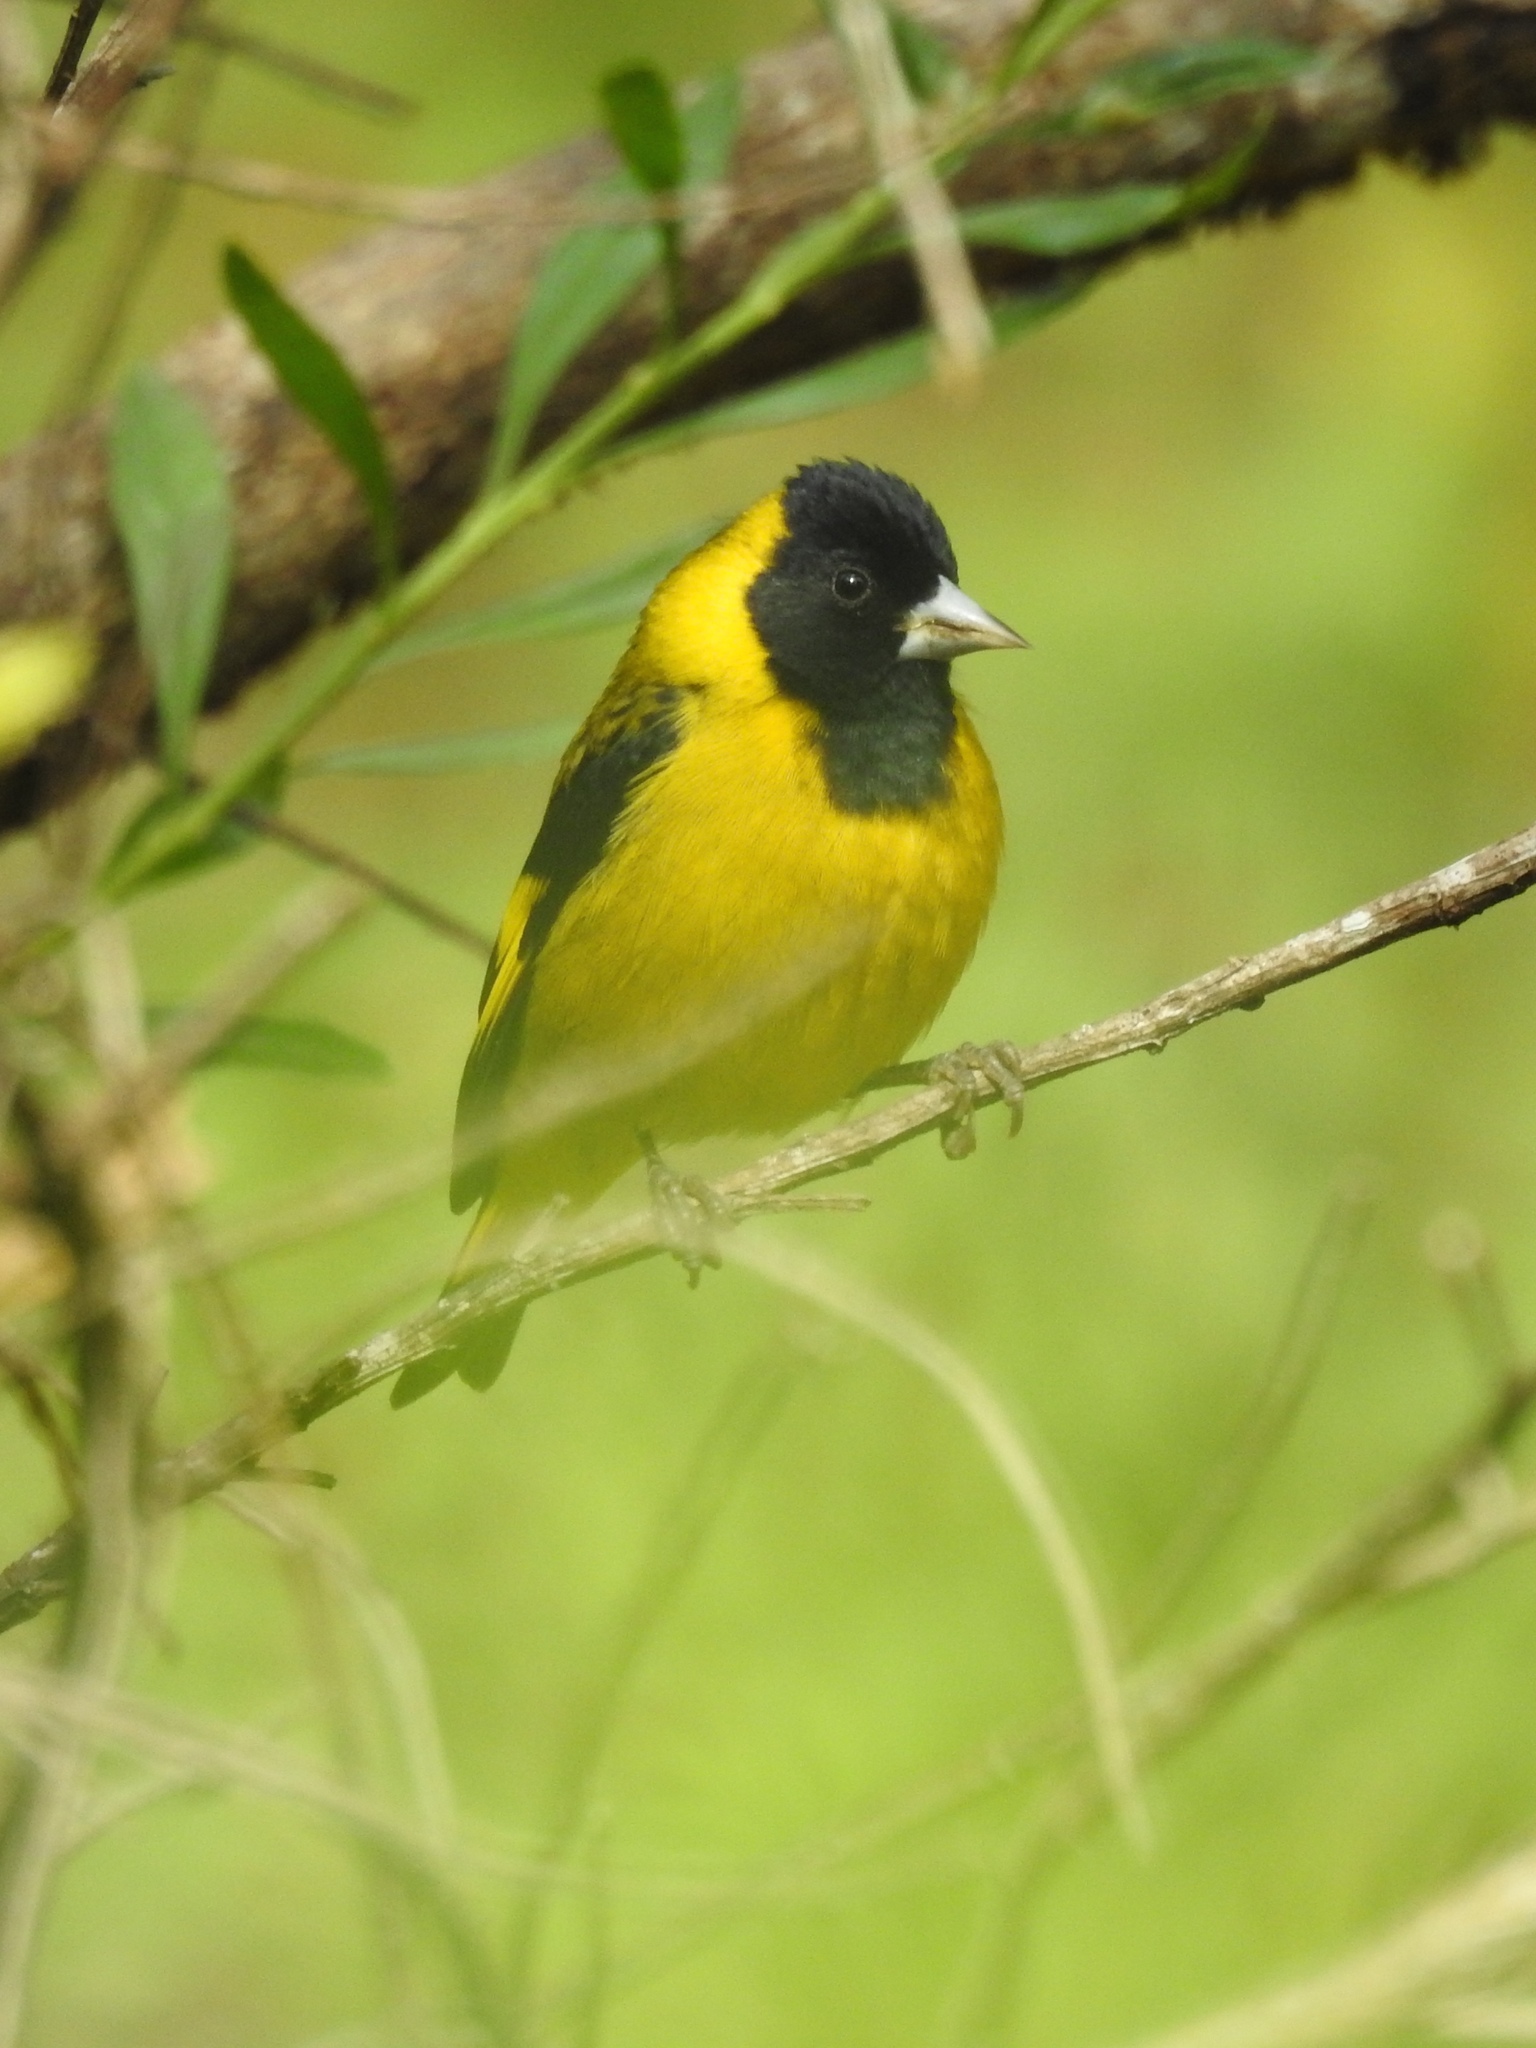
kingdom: Animalia
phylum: Chordata
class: Aves
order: Passeriformes
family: Fringillidae
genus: Spinus
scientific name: Spinus notatus
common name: Black-headed siskin
